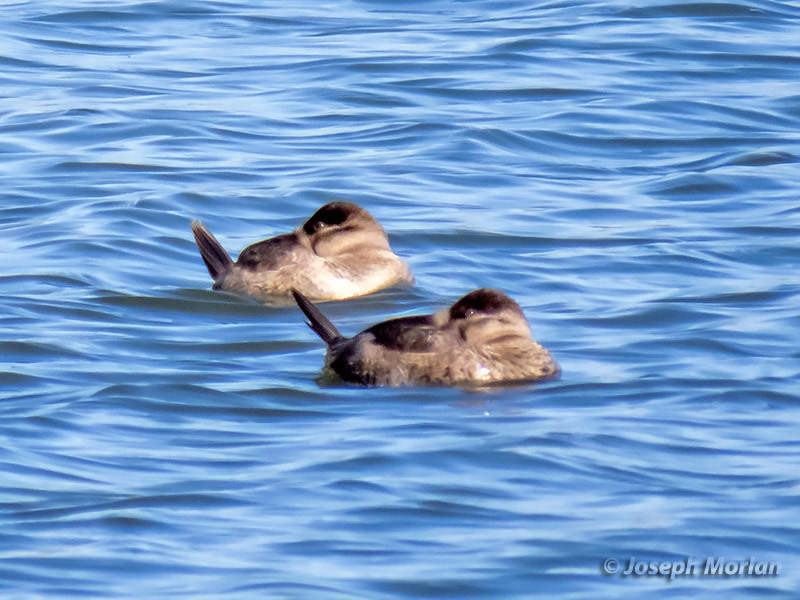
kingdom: Animalia
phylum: Chordata
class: Aves
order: Anseriformes
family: Anatidae
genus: Oxyura
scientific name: Oxyura jamaicensis
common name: Ruddy duck
